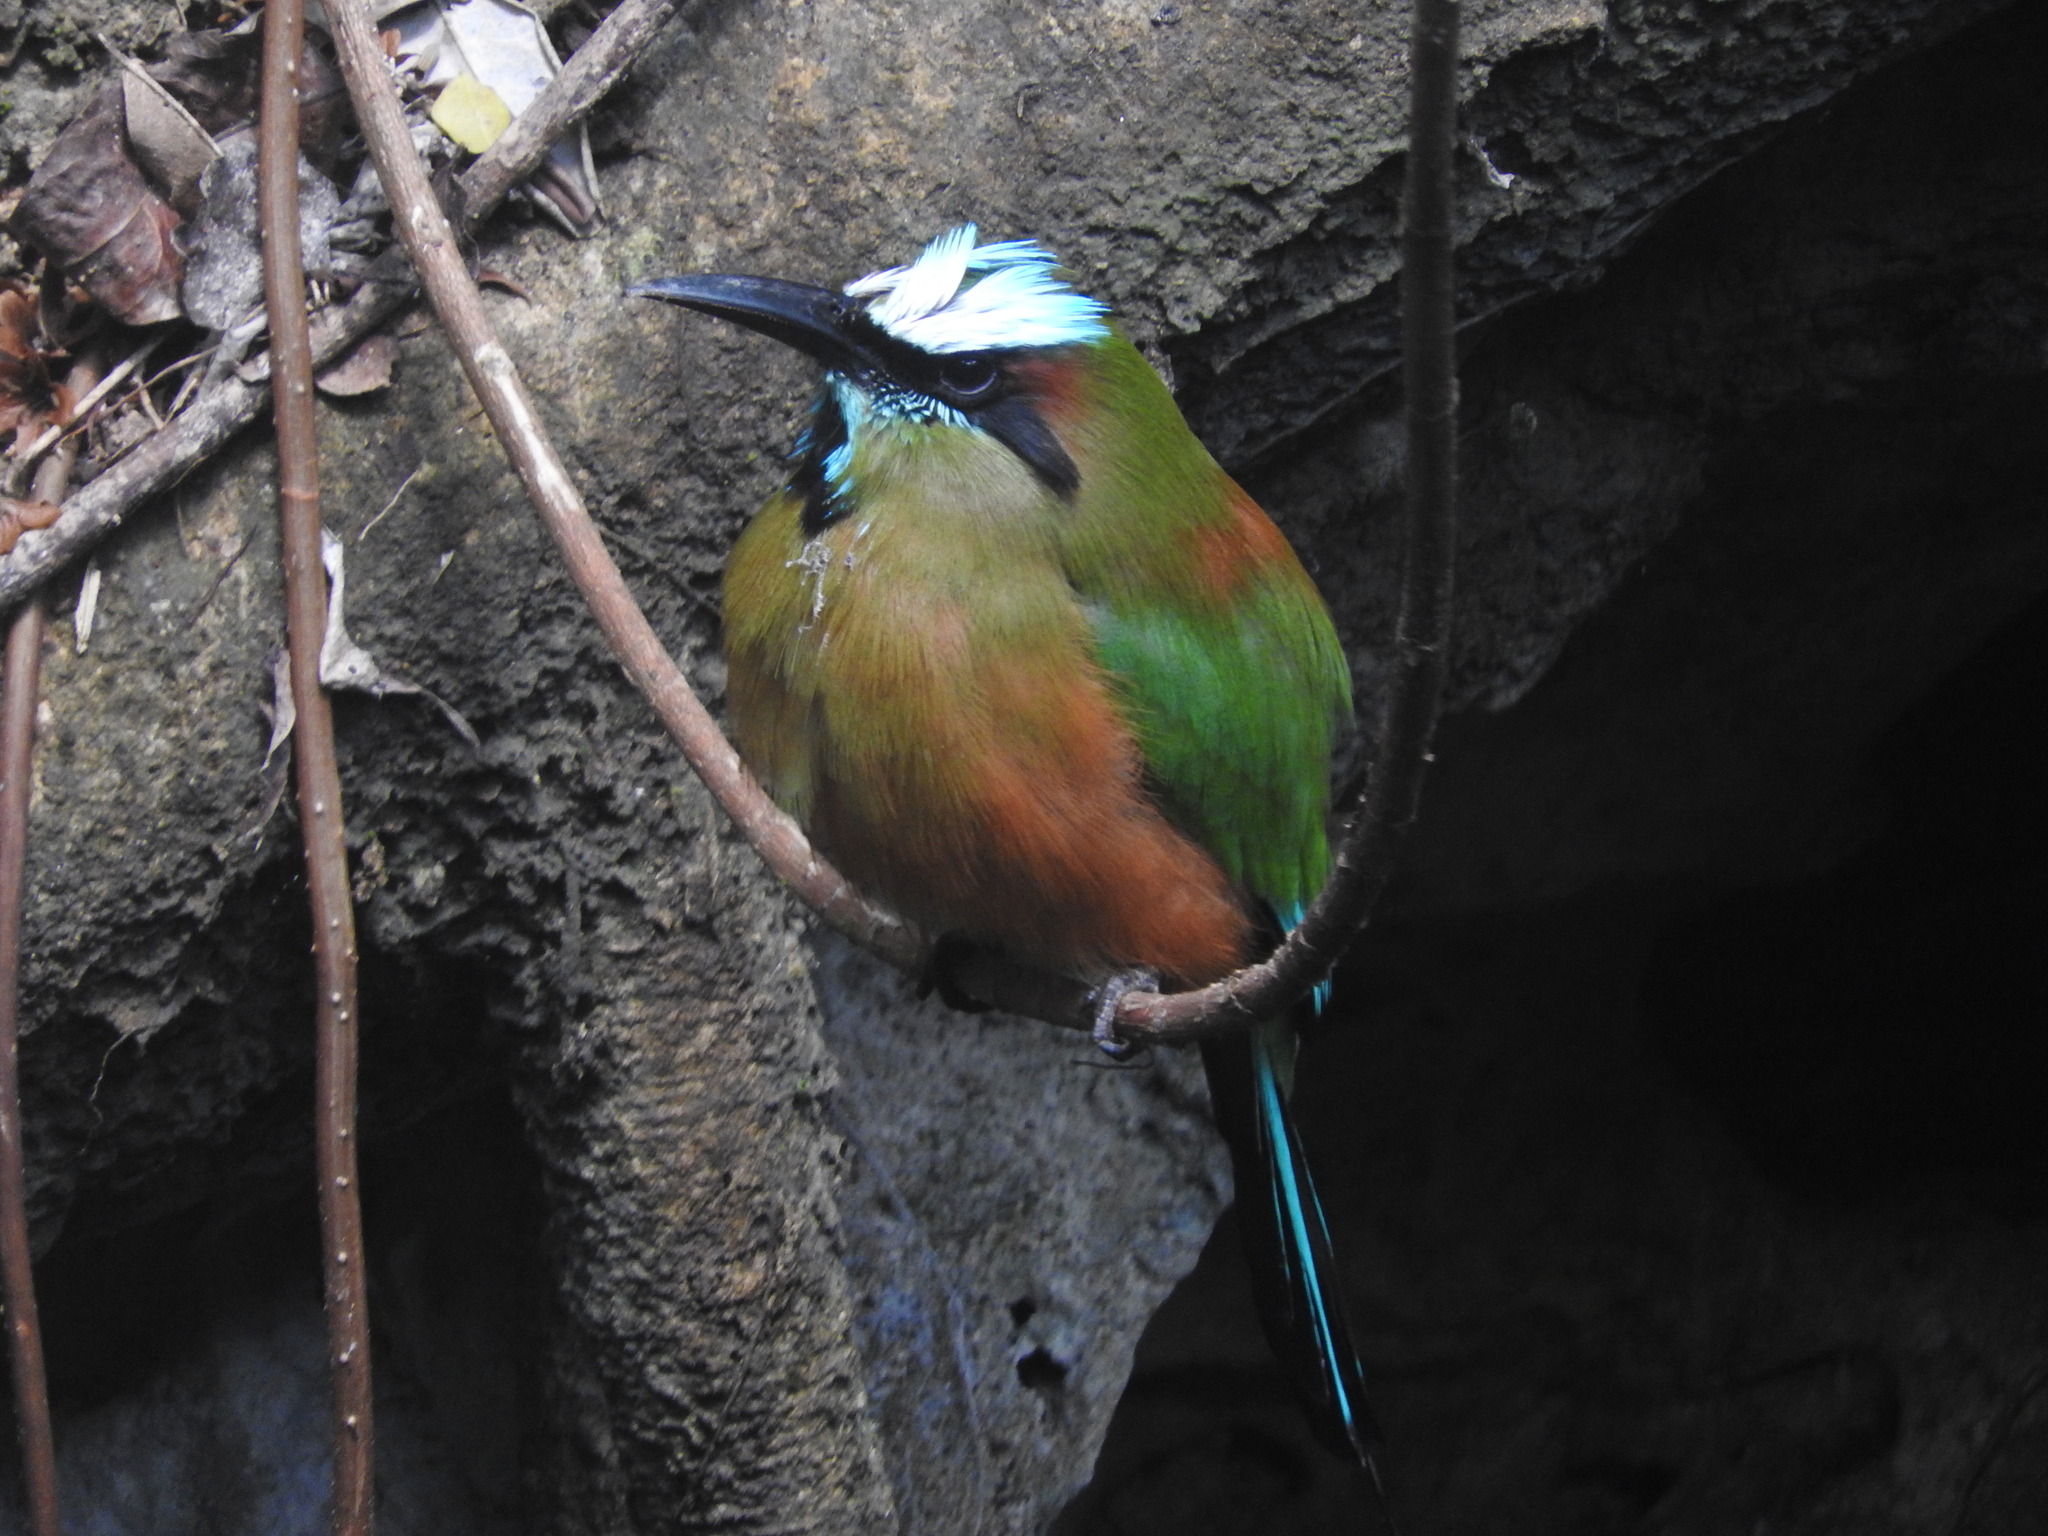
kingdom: Animalia
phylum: Chordata
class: Aves
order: Coraciiformes
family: Momotidae
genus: Eumomota
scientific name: Eumomota superciliosa
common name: Turquoise-browed motmot
